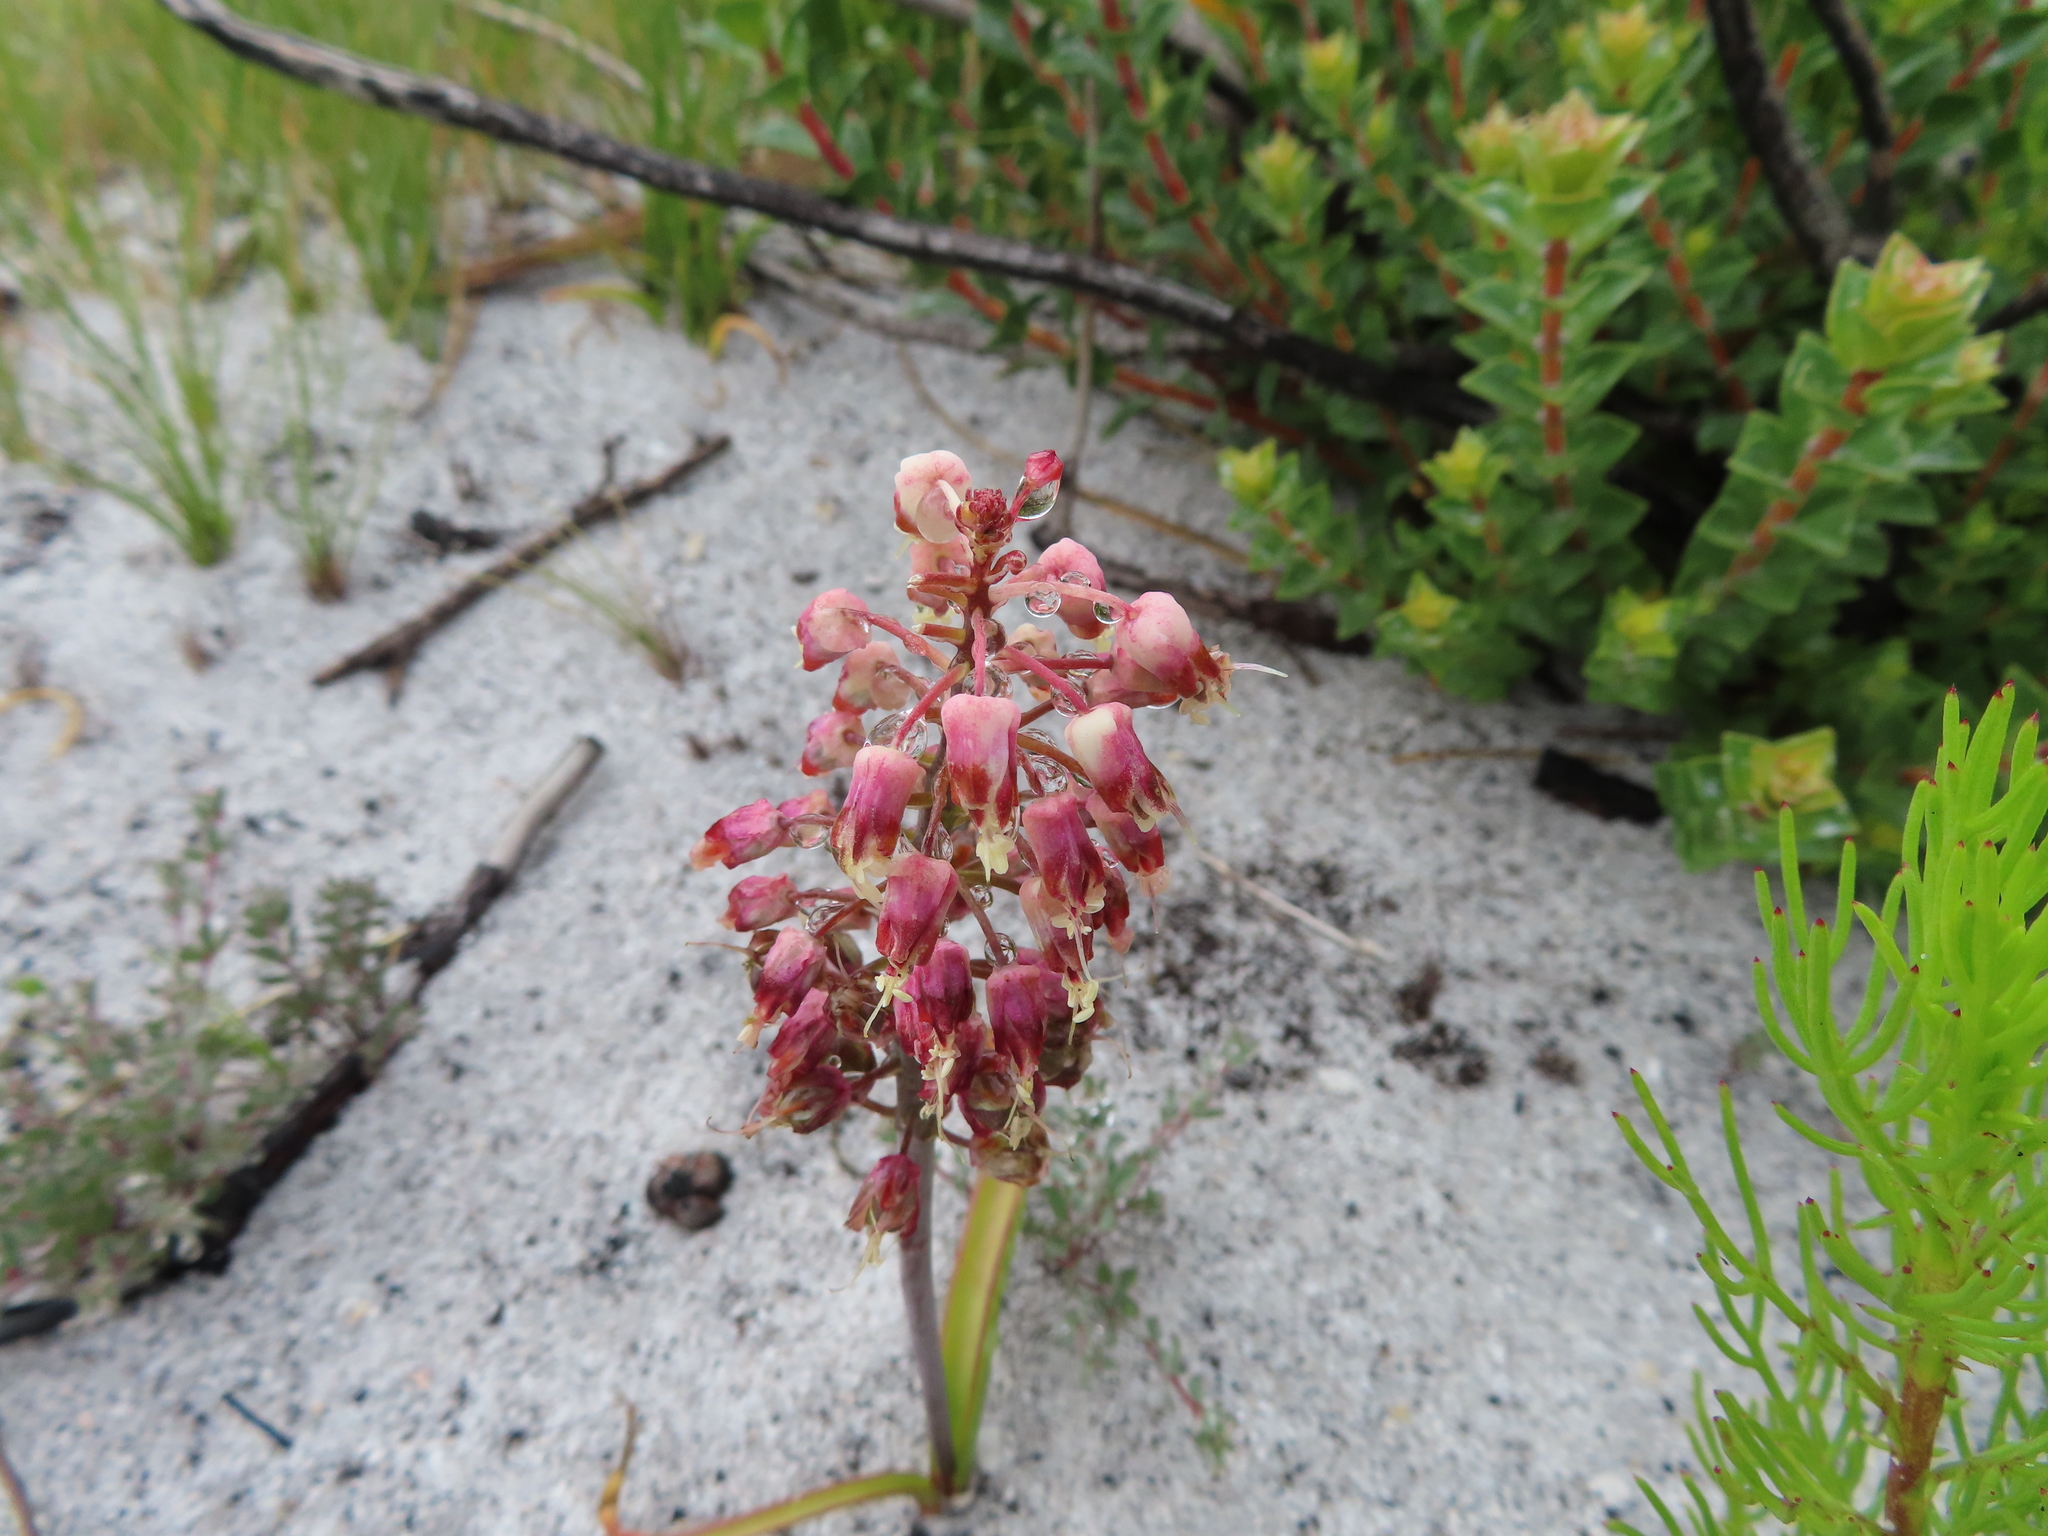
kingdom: Plantae
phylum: Tracheophyta
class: Liliopsida
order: Asparagales
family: Asparagaceae
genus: Lachenalia
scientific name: Lachenalia montana
